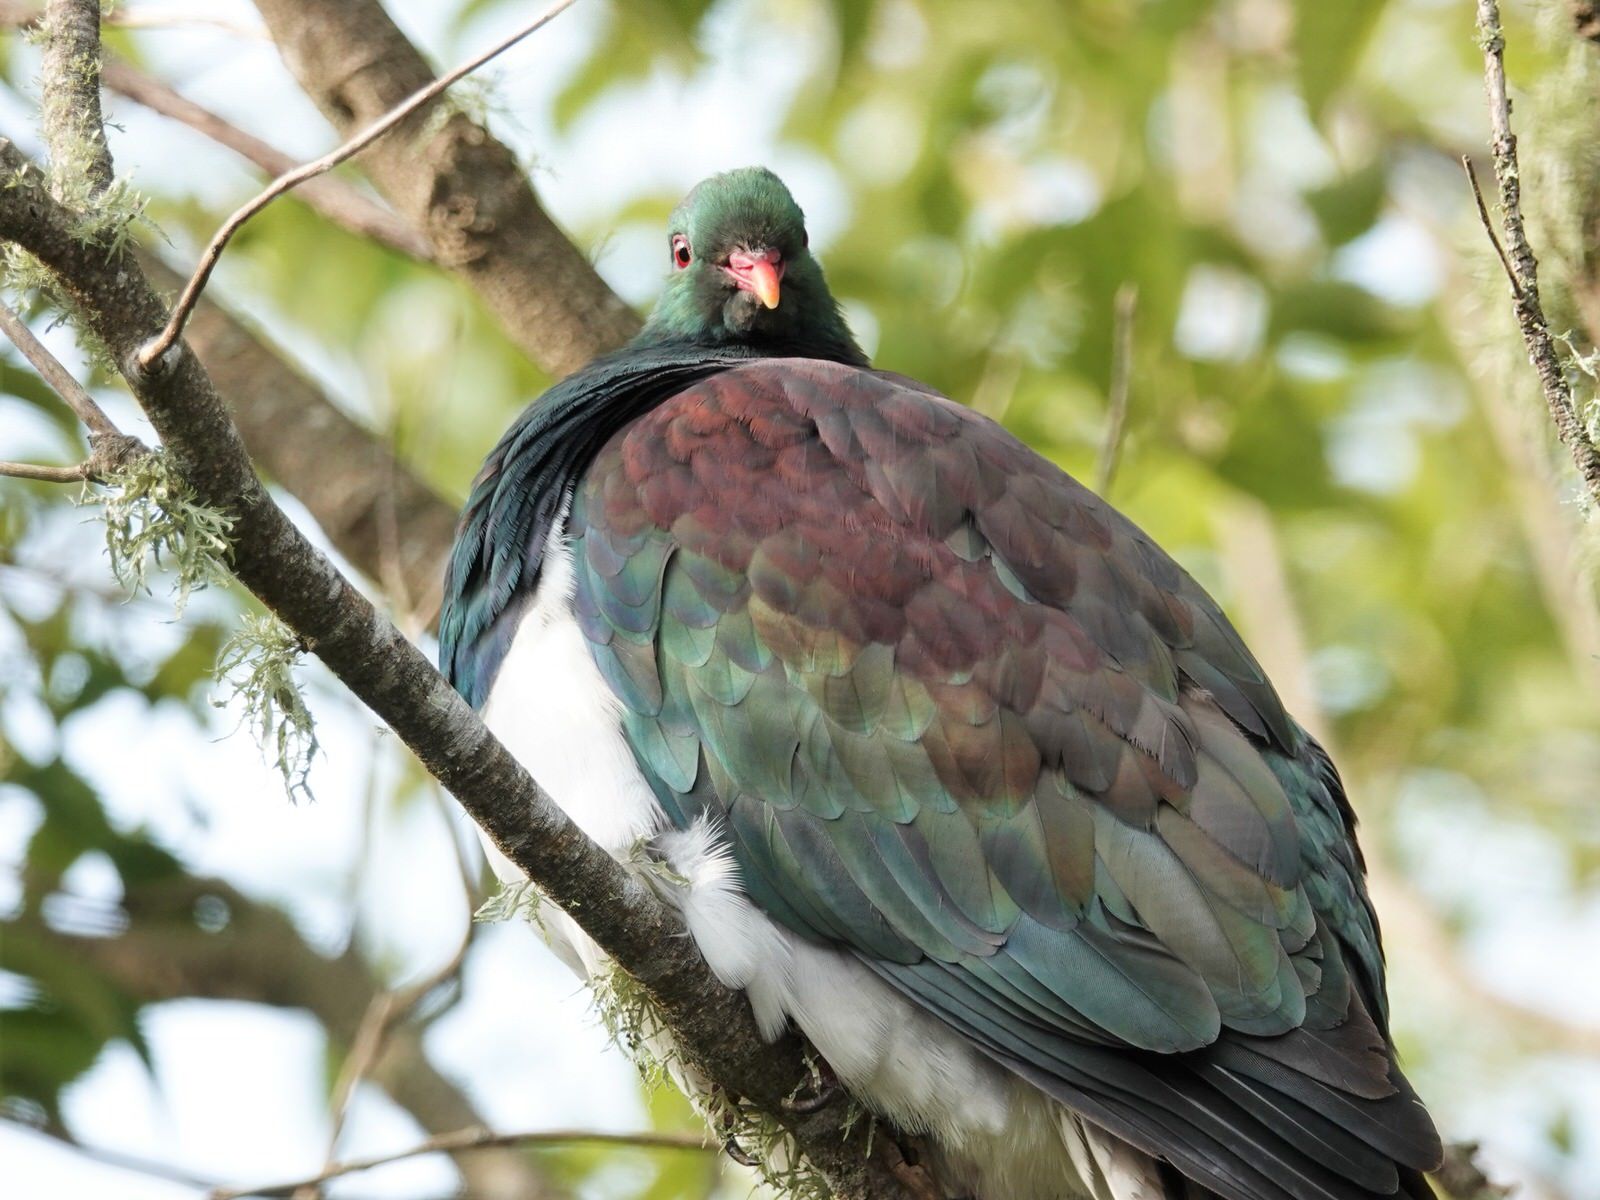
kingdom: Animalia
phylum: Chordata
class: Aves
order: Columbiformes
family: Columbidae
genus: Hemiphaga
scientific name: Hemiphaga novaeseelandiae
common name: New zealand pigeon
